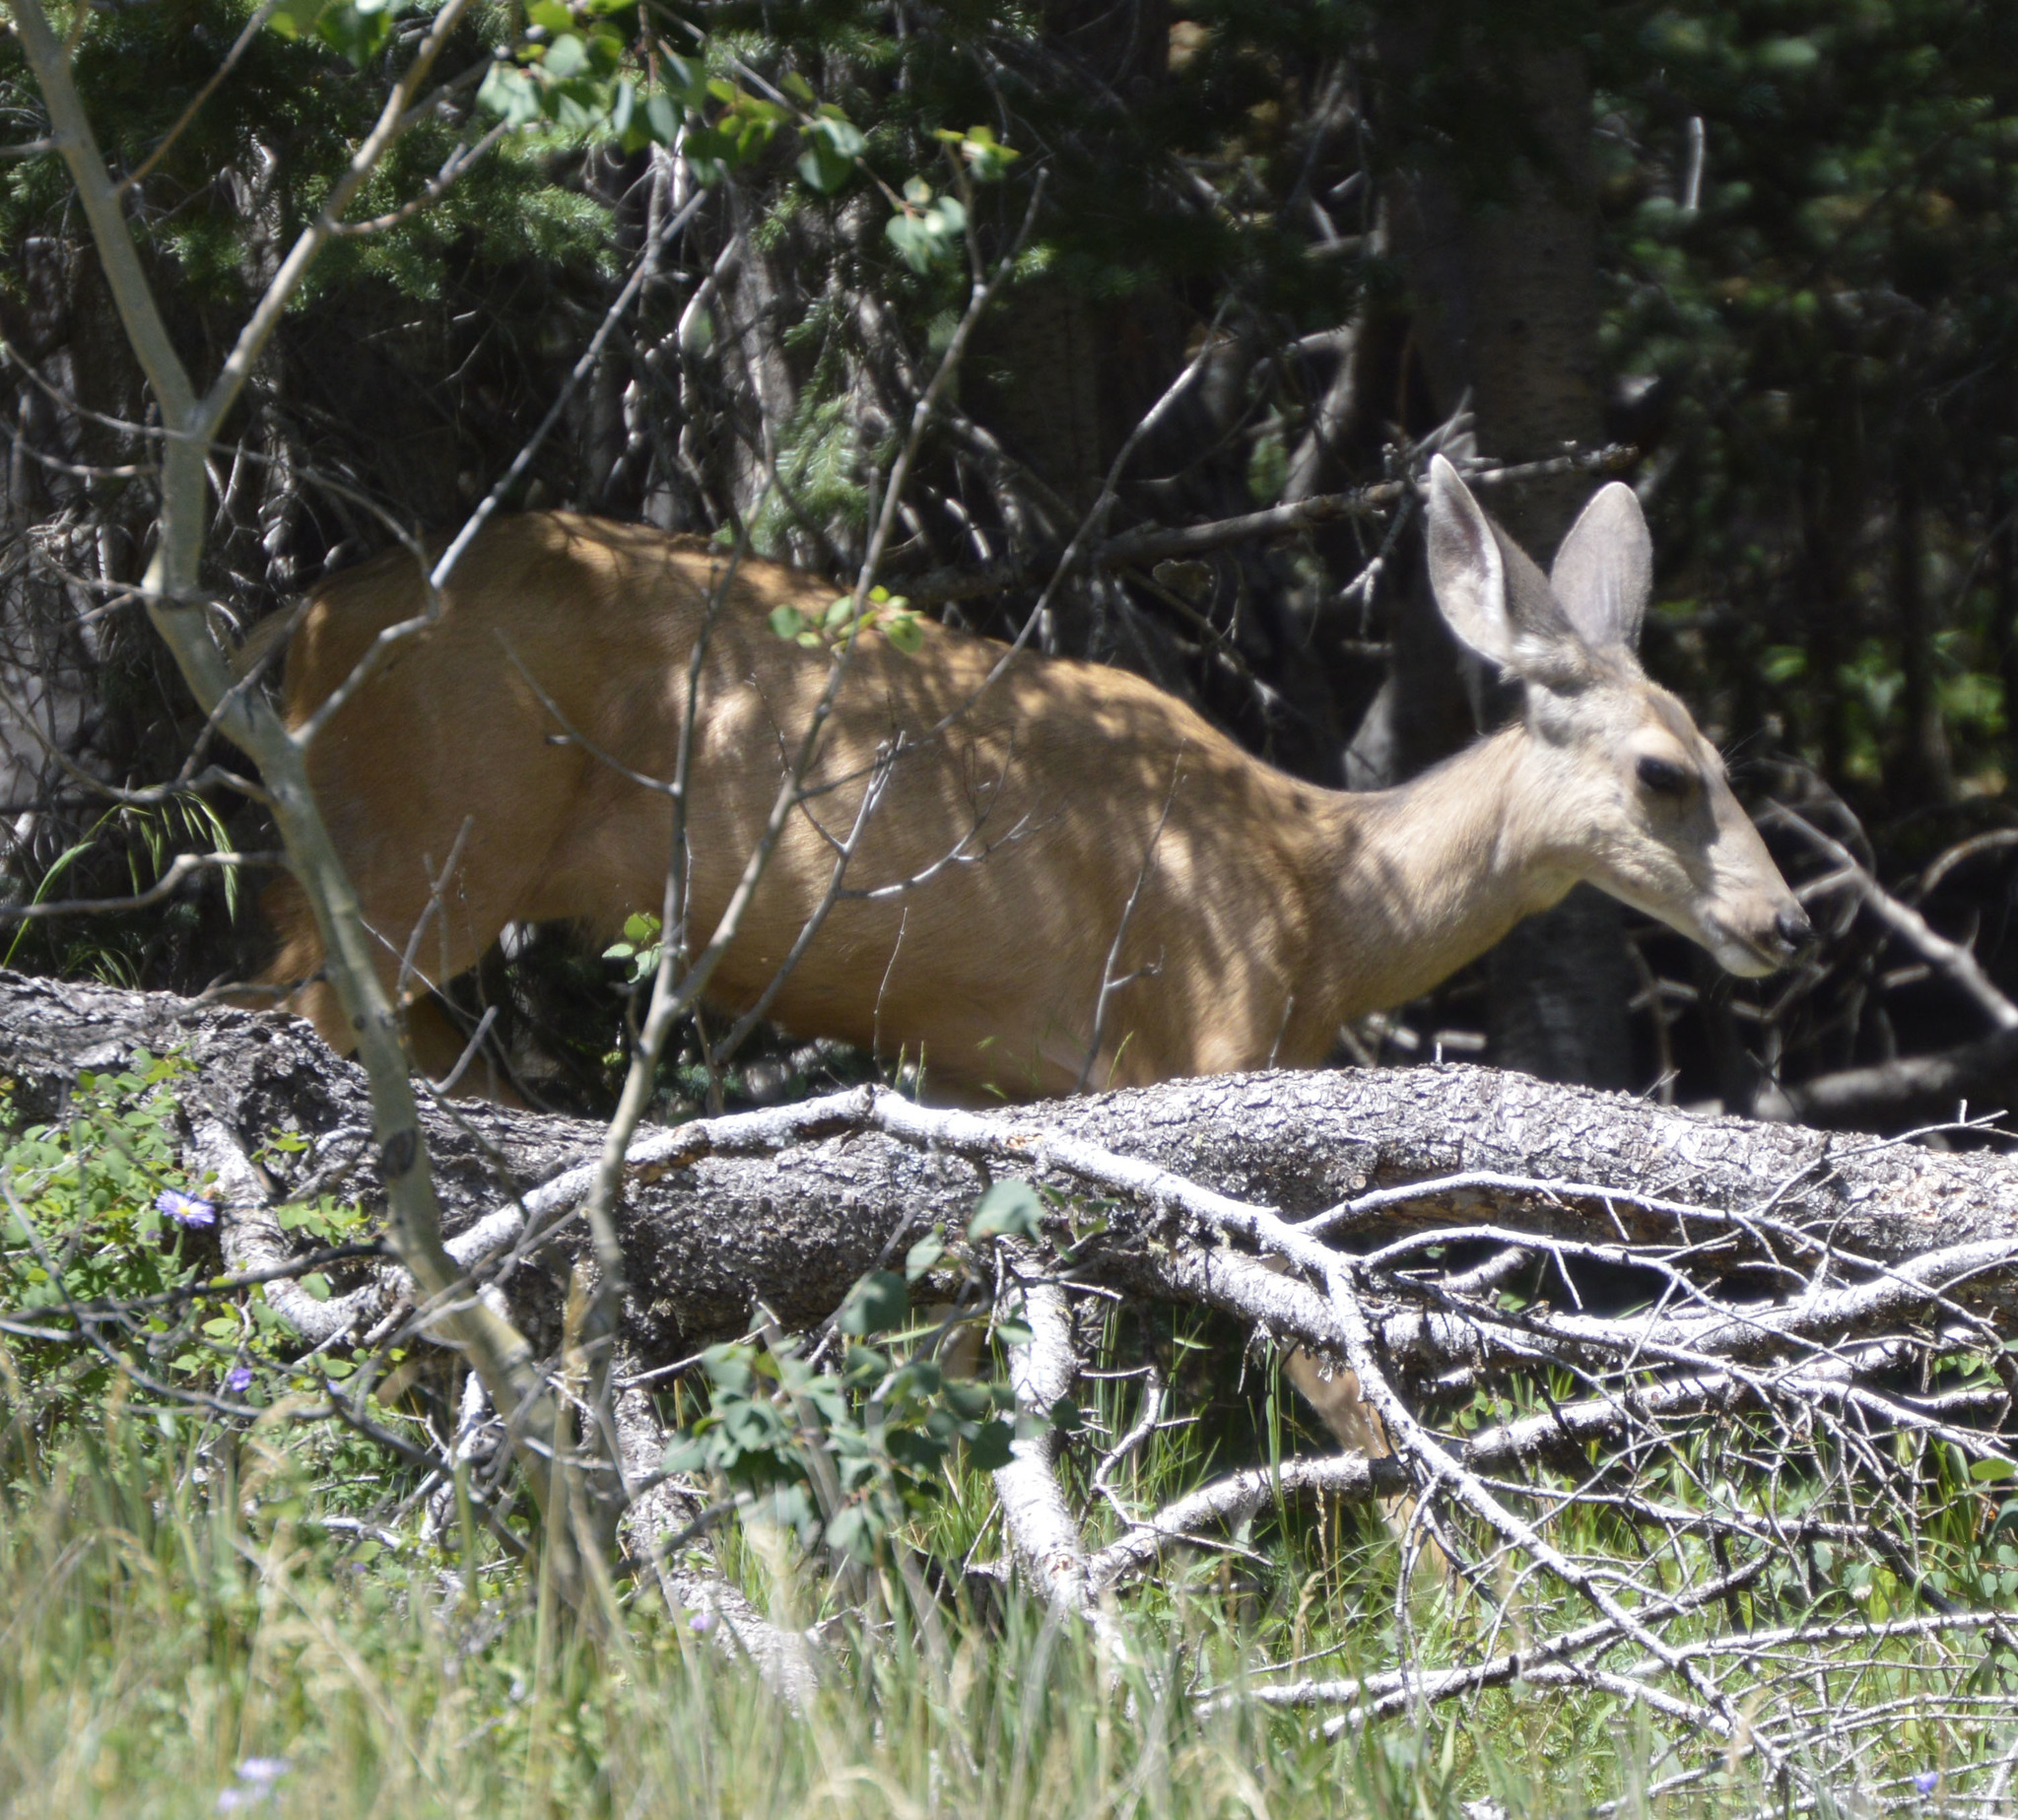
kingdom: Animalia
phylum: Chordata
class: Mammalia
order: Artiodactyla
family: Cervidae
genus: Odocoileus
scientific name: Odocoileus hemionus
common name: Mule deer
